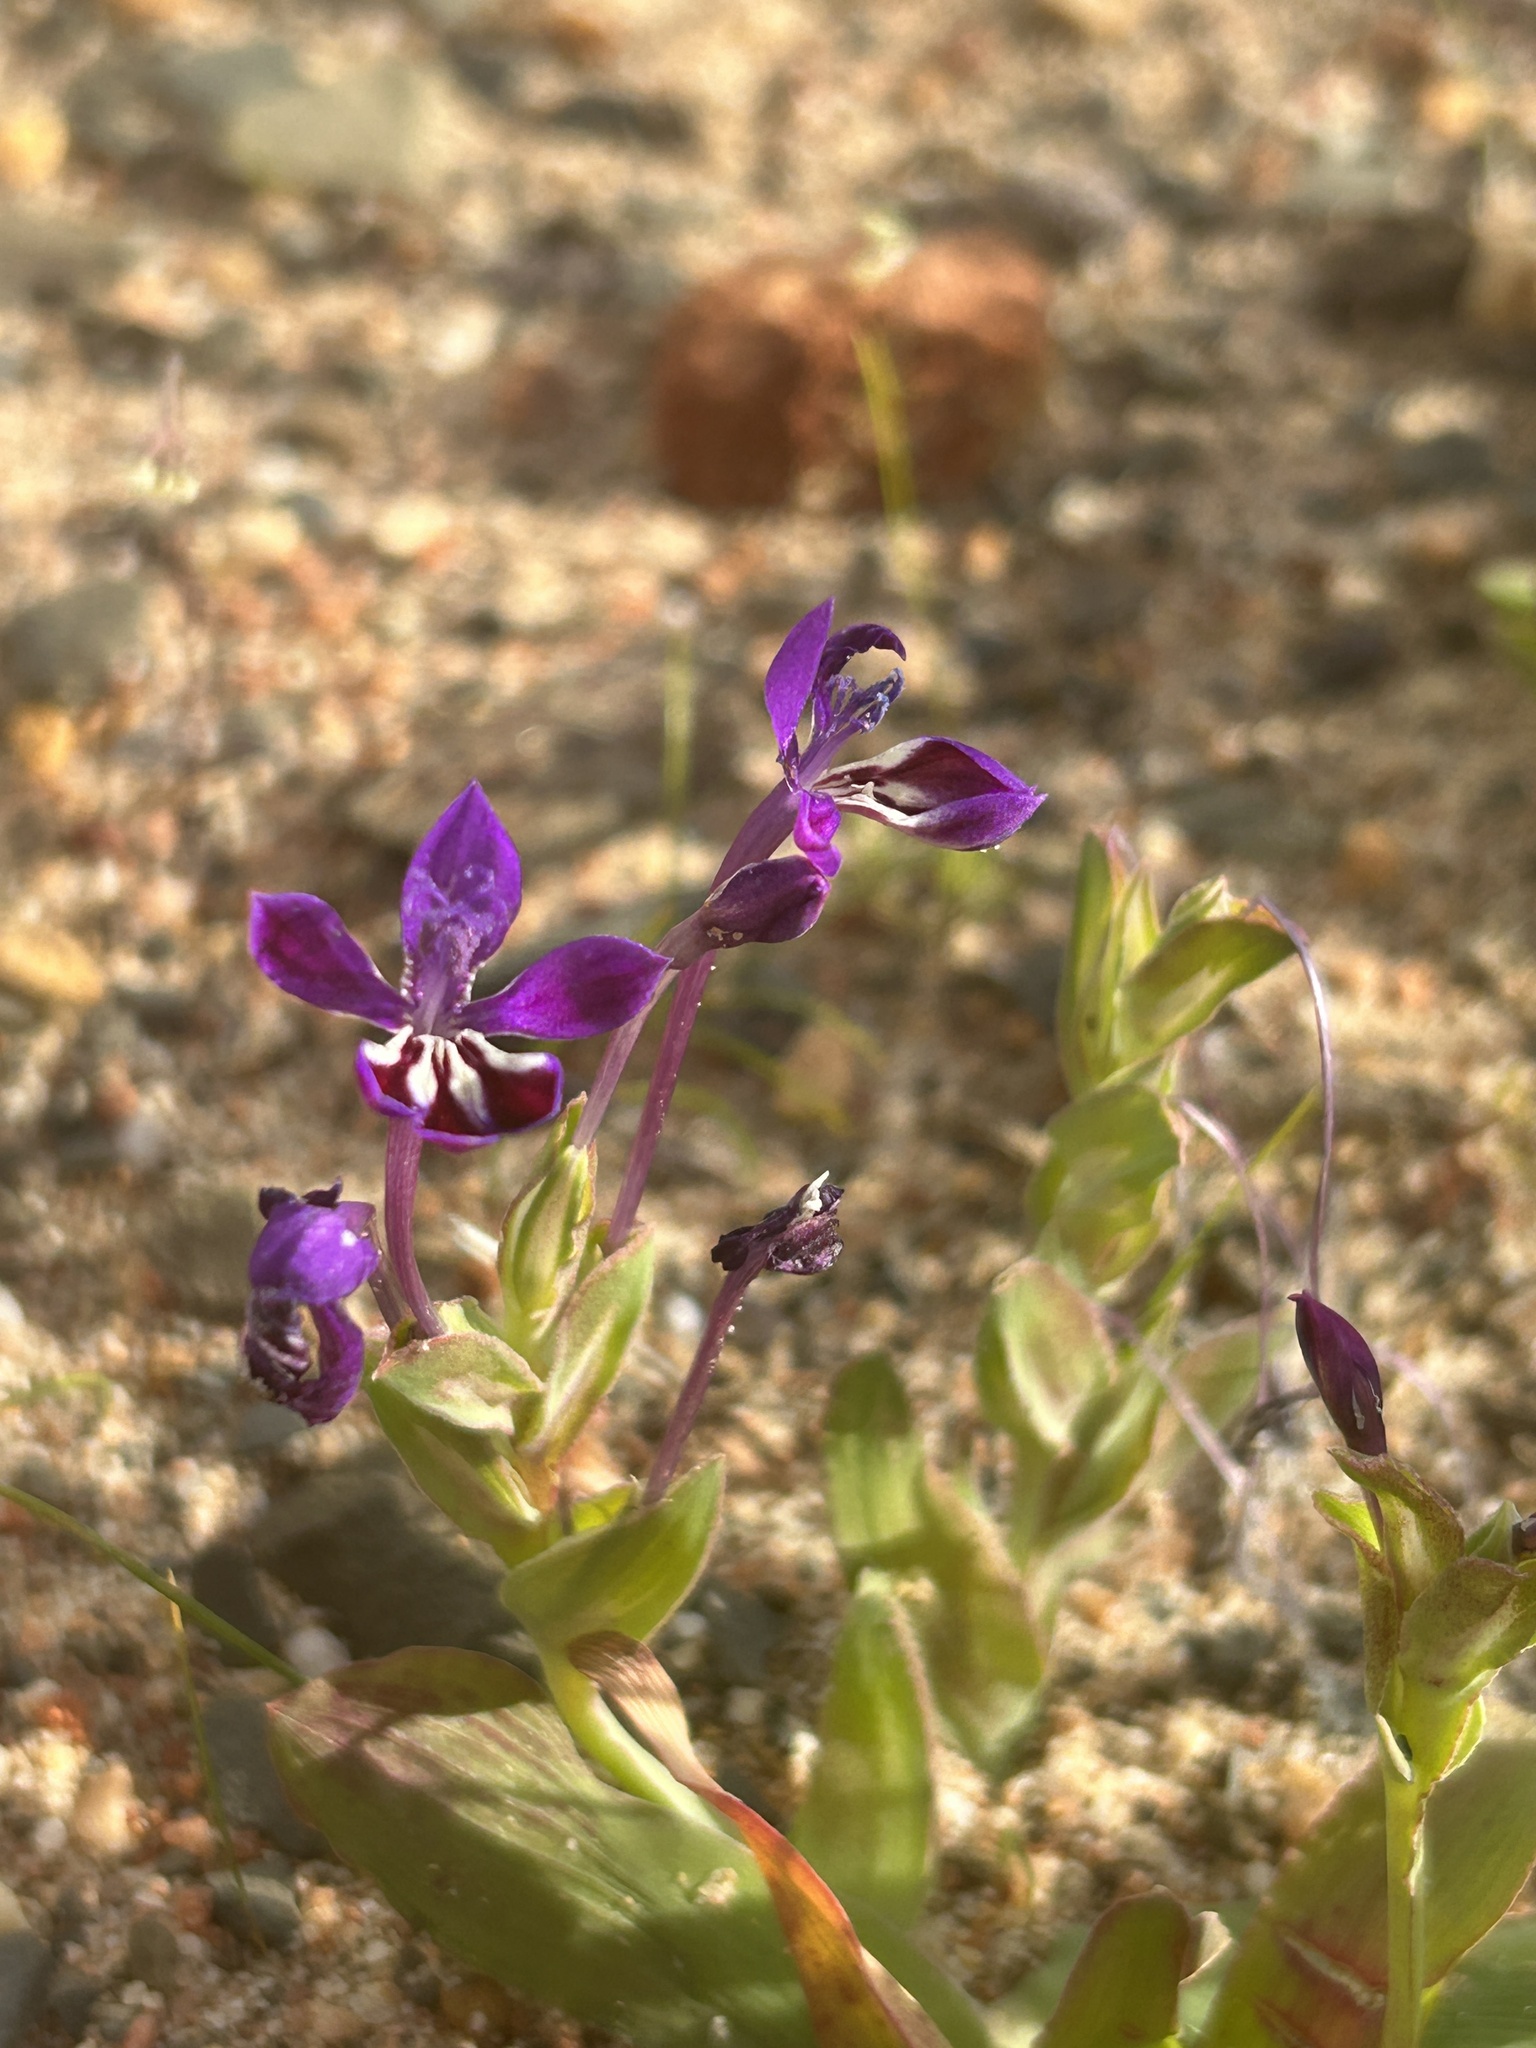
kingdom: Plantae
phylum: Tracheophyta
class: Liliopsida
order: Asparagales
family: Iridaceae
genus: Lapeirousia
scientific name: Lapeirousia jacquinii
